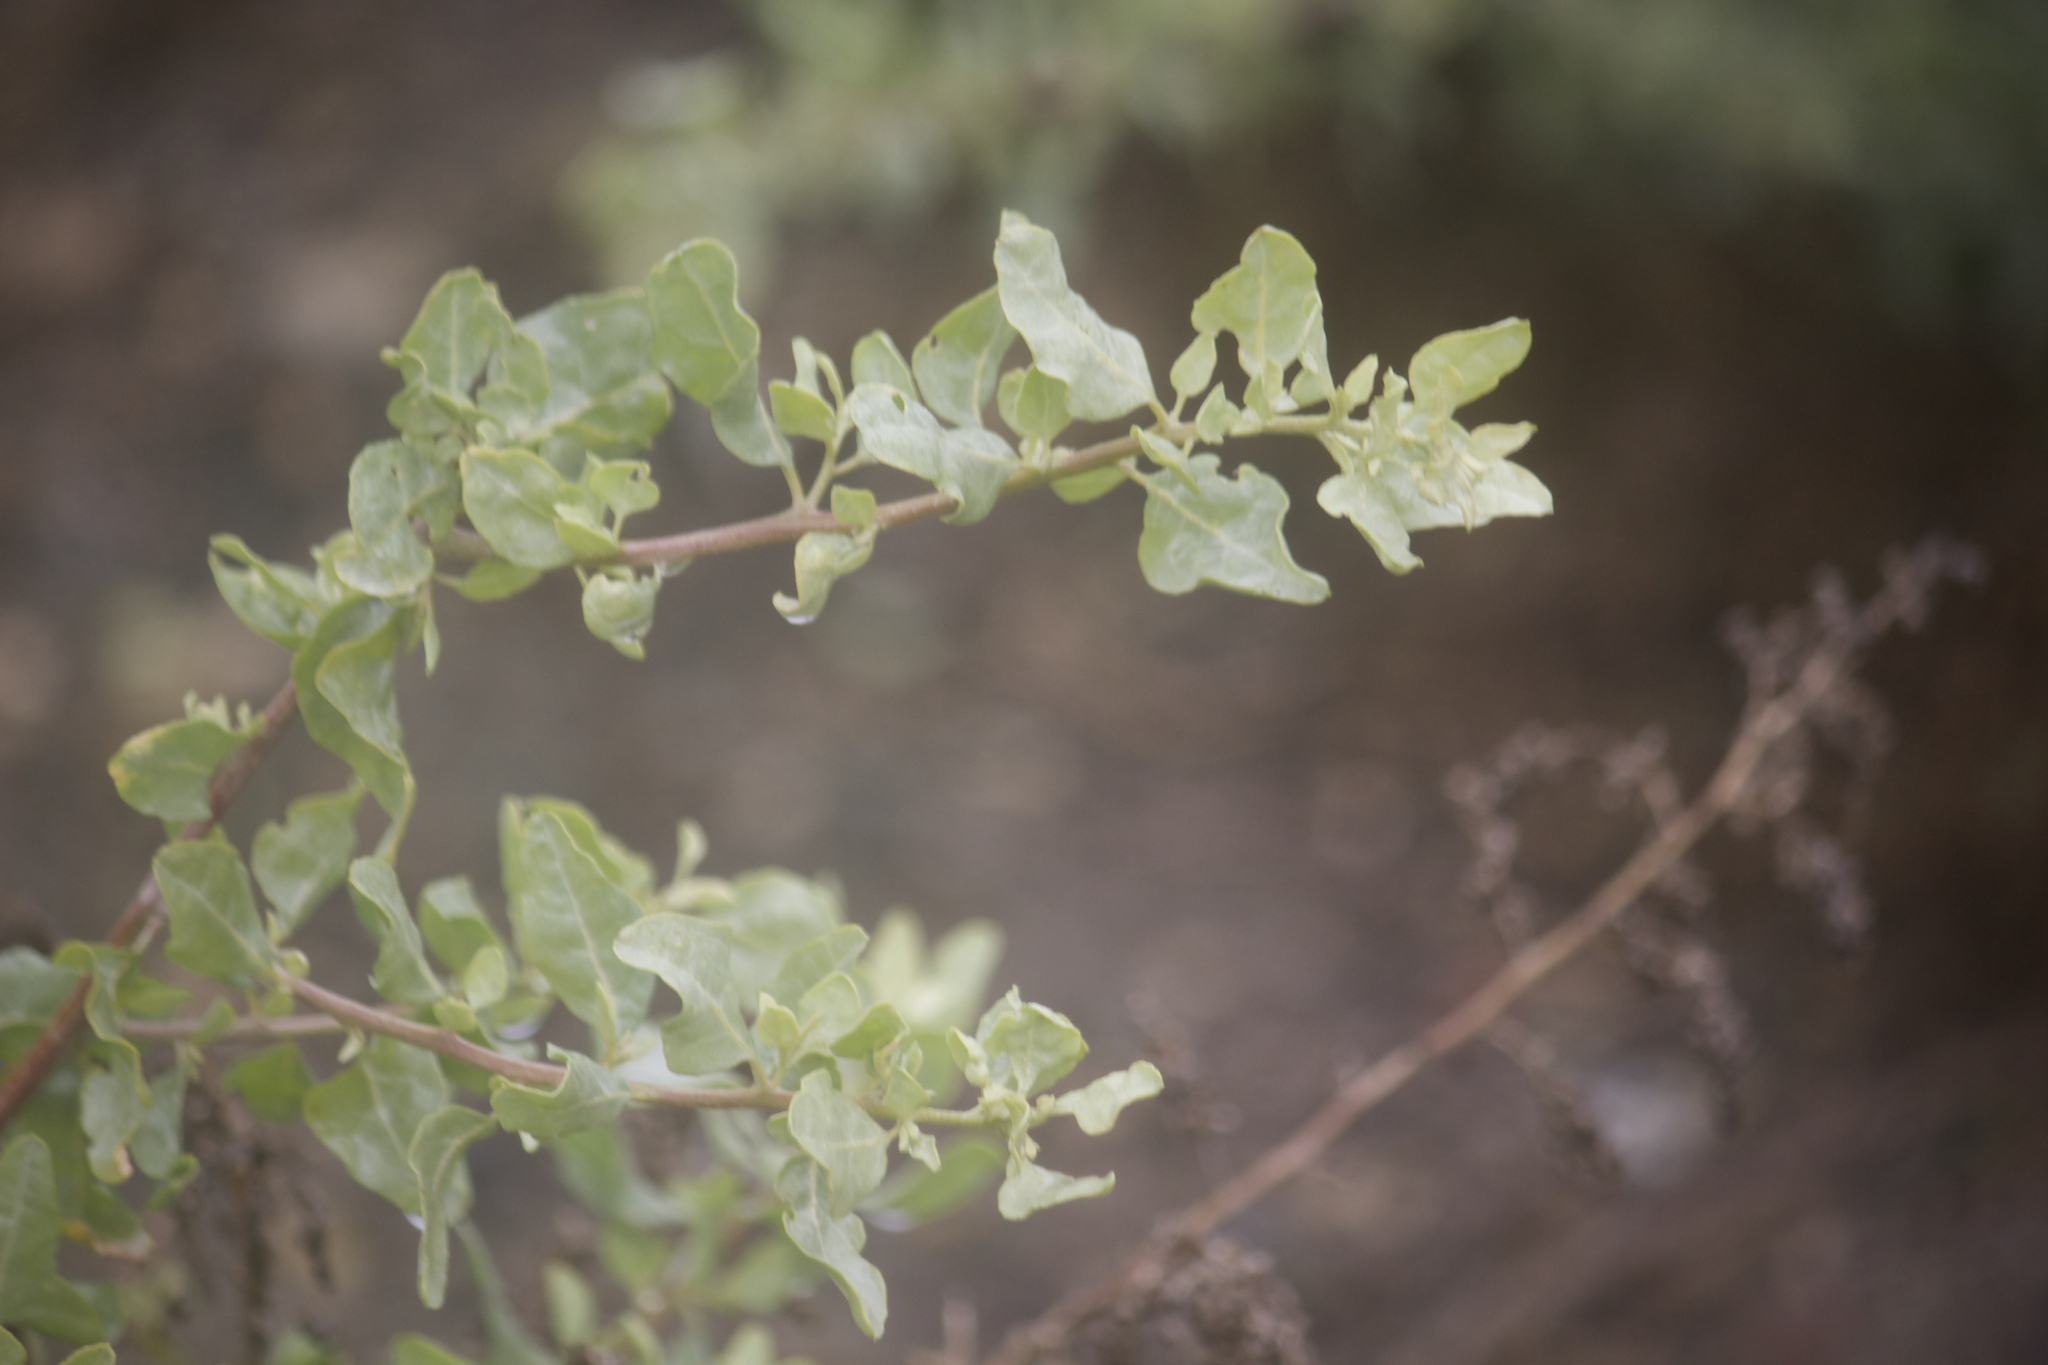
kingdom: Plantae
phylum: Tracheophyta
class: Magnoliopsida
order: Caryophyllales
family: Amaranthaceae
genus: Atriplex
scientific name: Atriplex lentiformis
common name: Big saltbush
